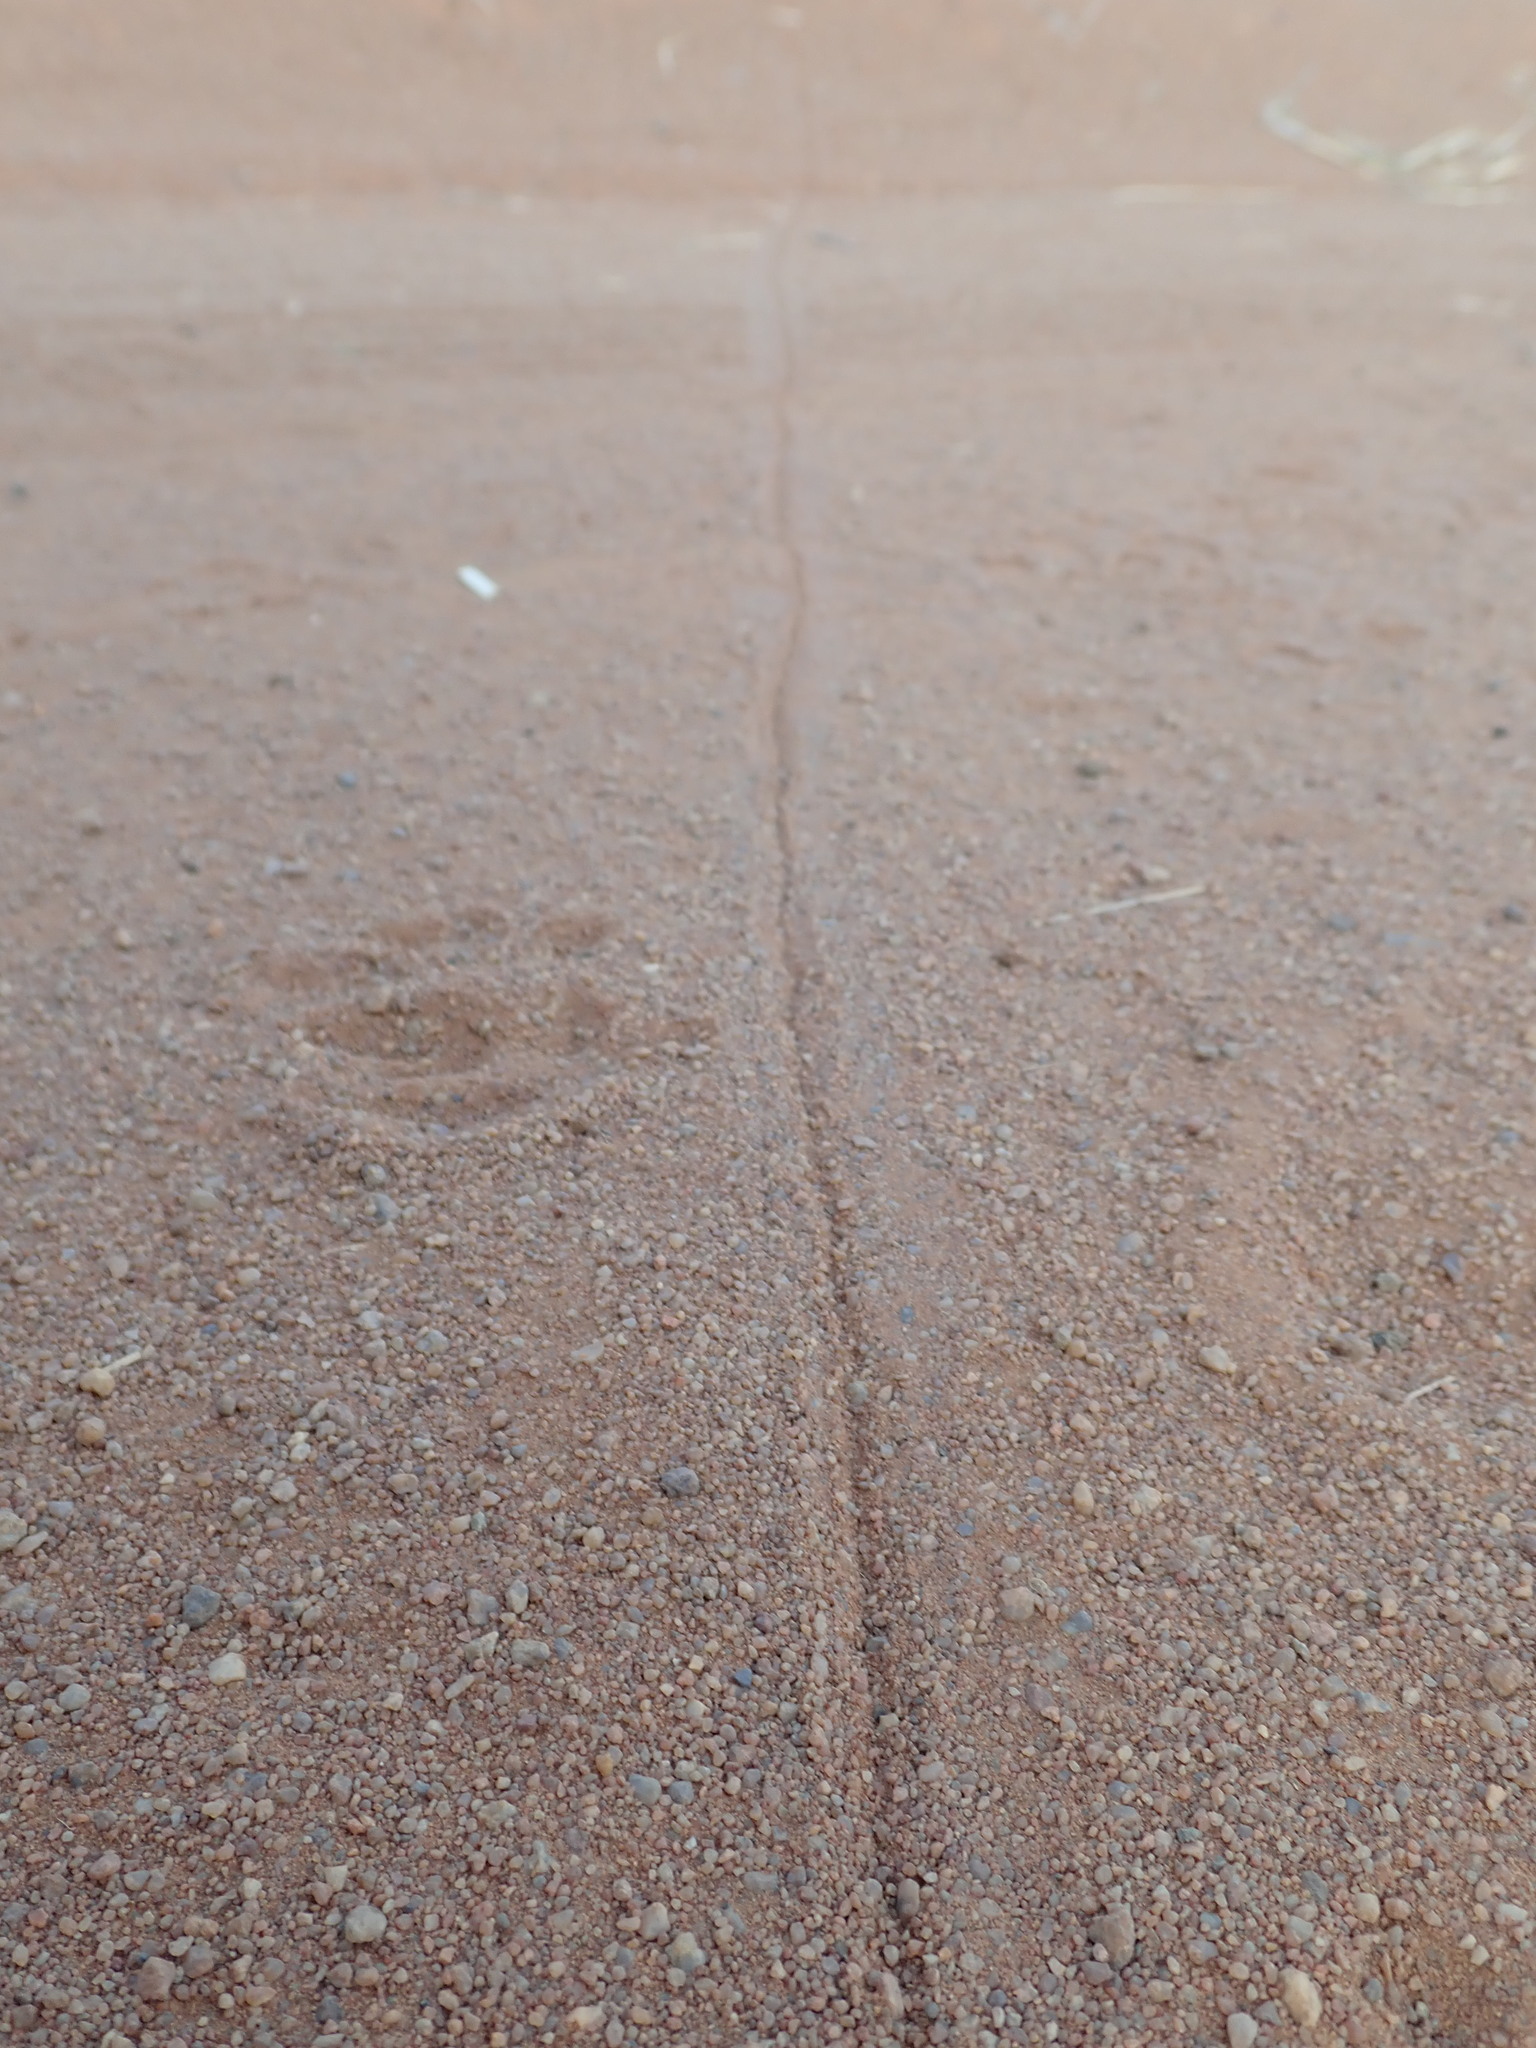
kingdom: Animalia
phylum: Chordata
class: Squamata
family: Viperidae
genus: Bitis
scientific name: Bitis arietans
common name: Puff adder
